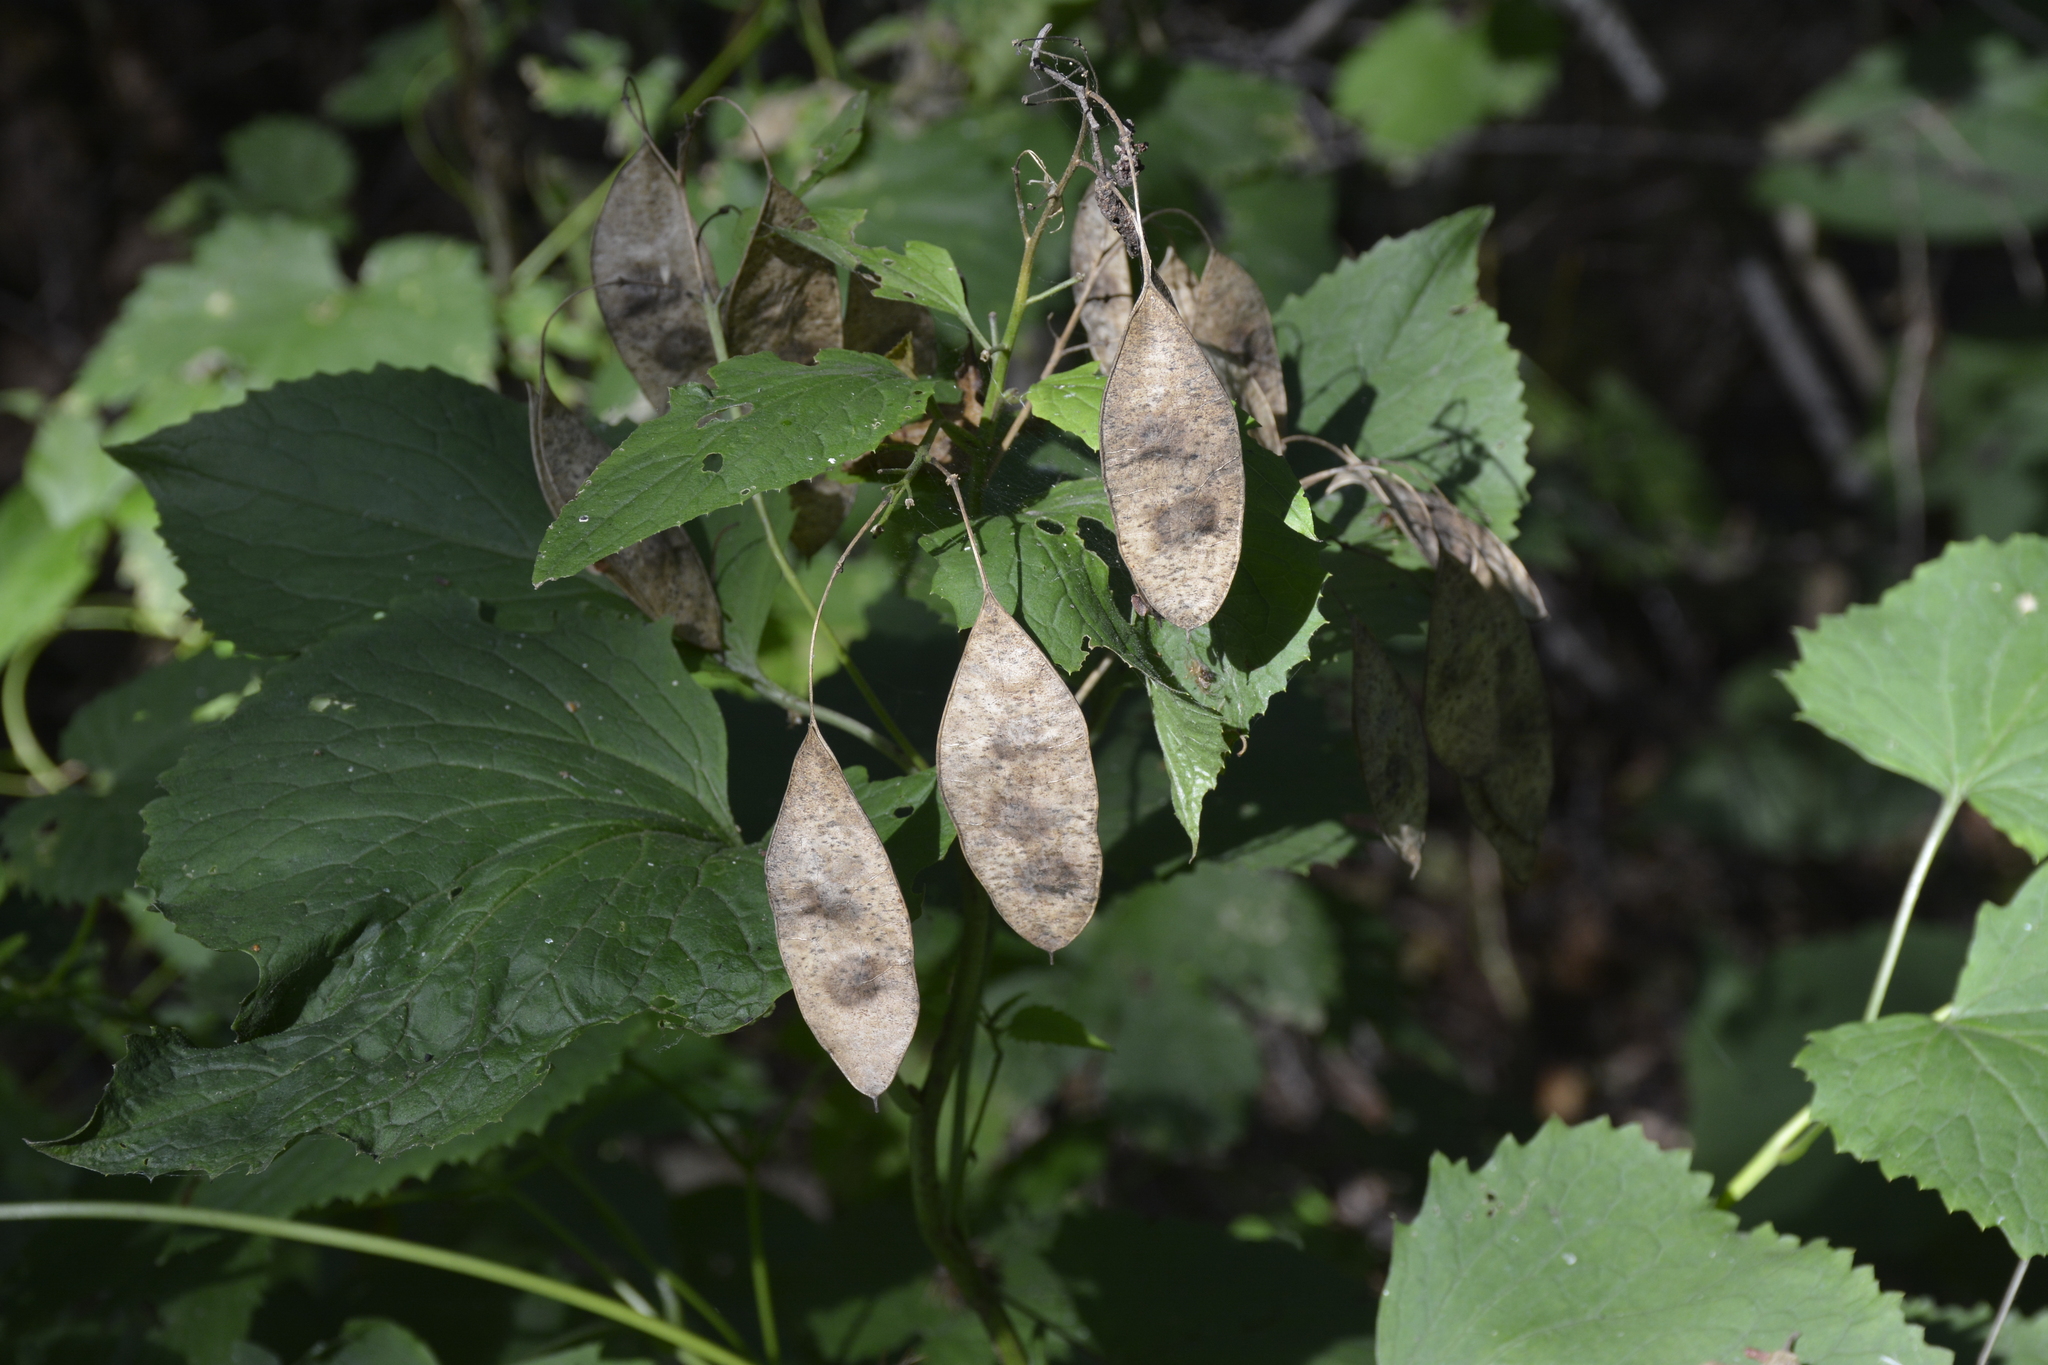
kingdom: Plantae
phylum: Tracheophyta
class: Magnoliopsida
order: Brassicales
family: Brassicaceae
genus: Lunaria
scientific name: Lunaria rediviva
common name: Perennial honesty
